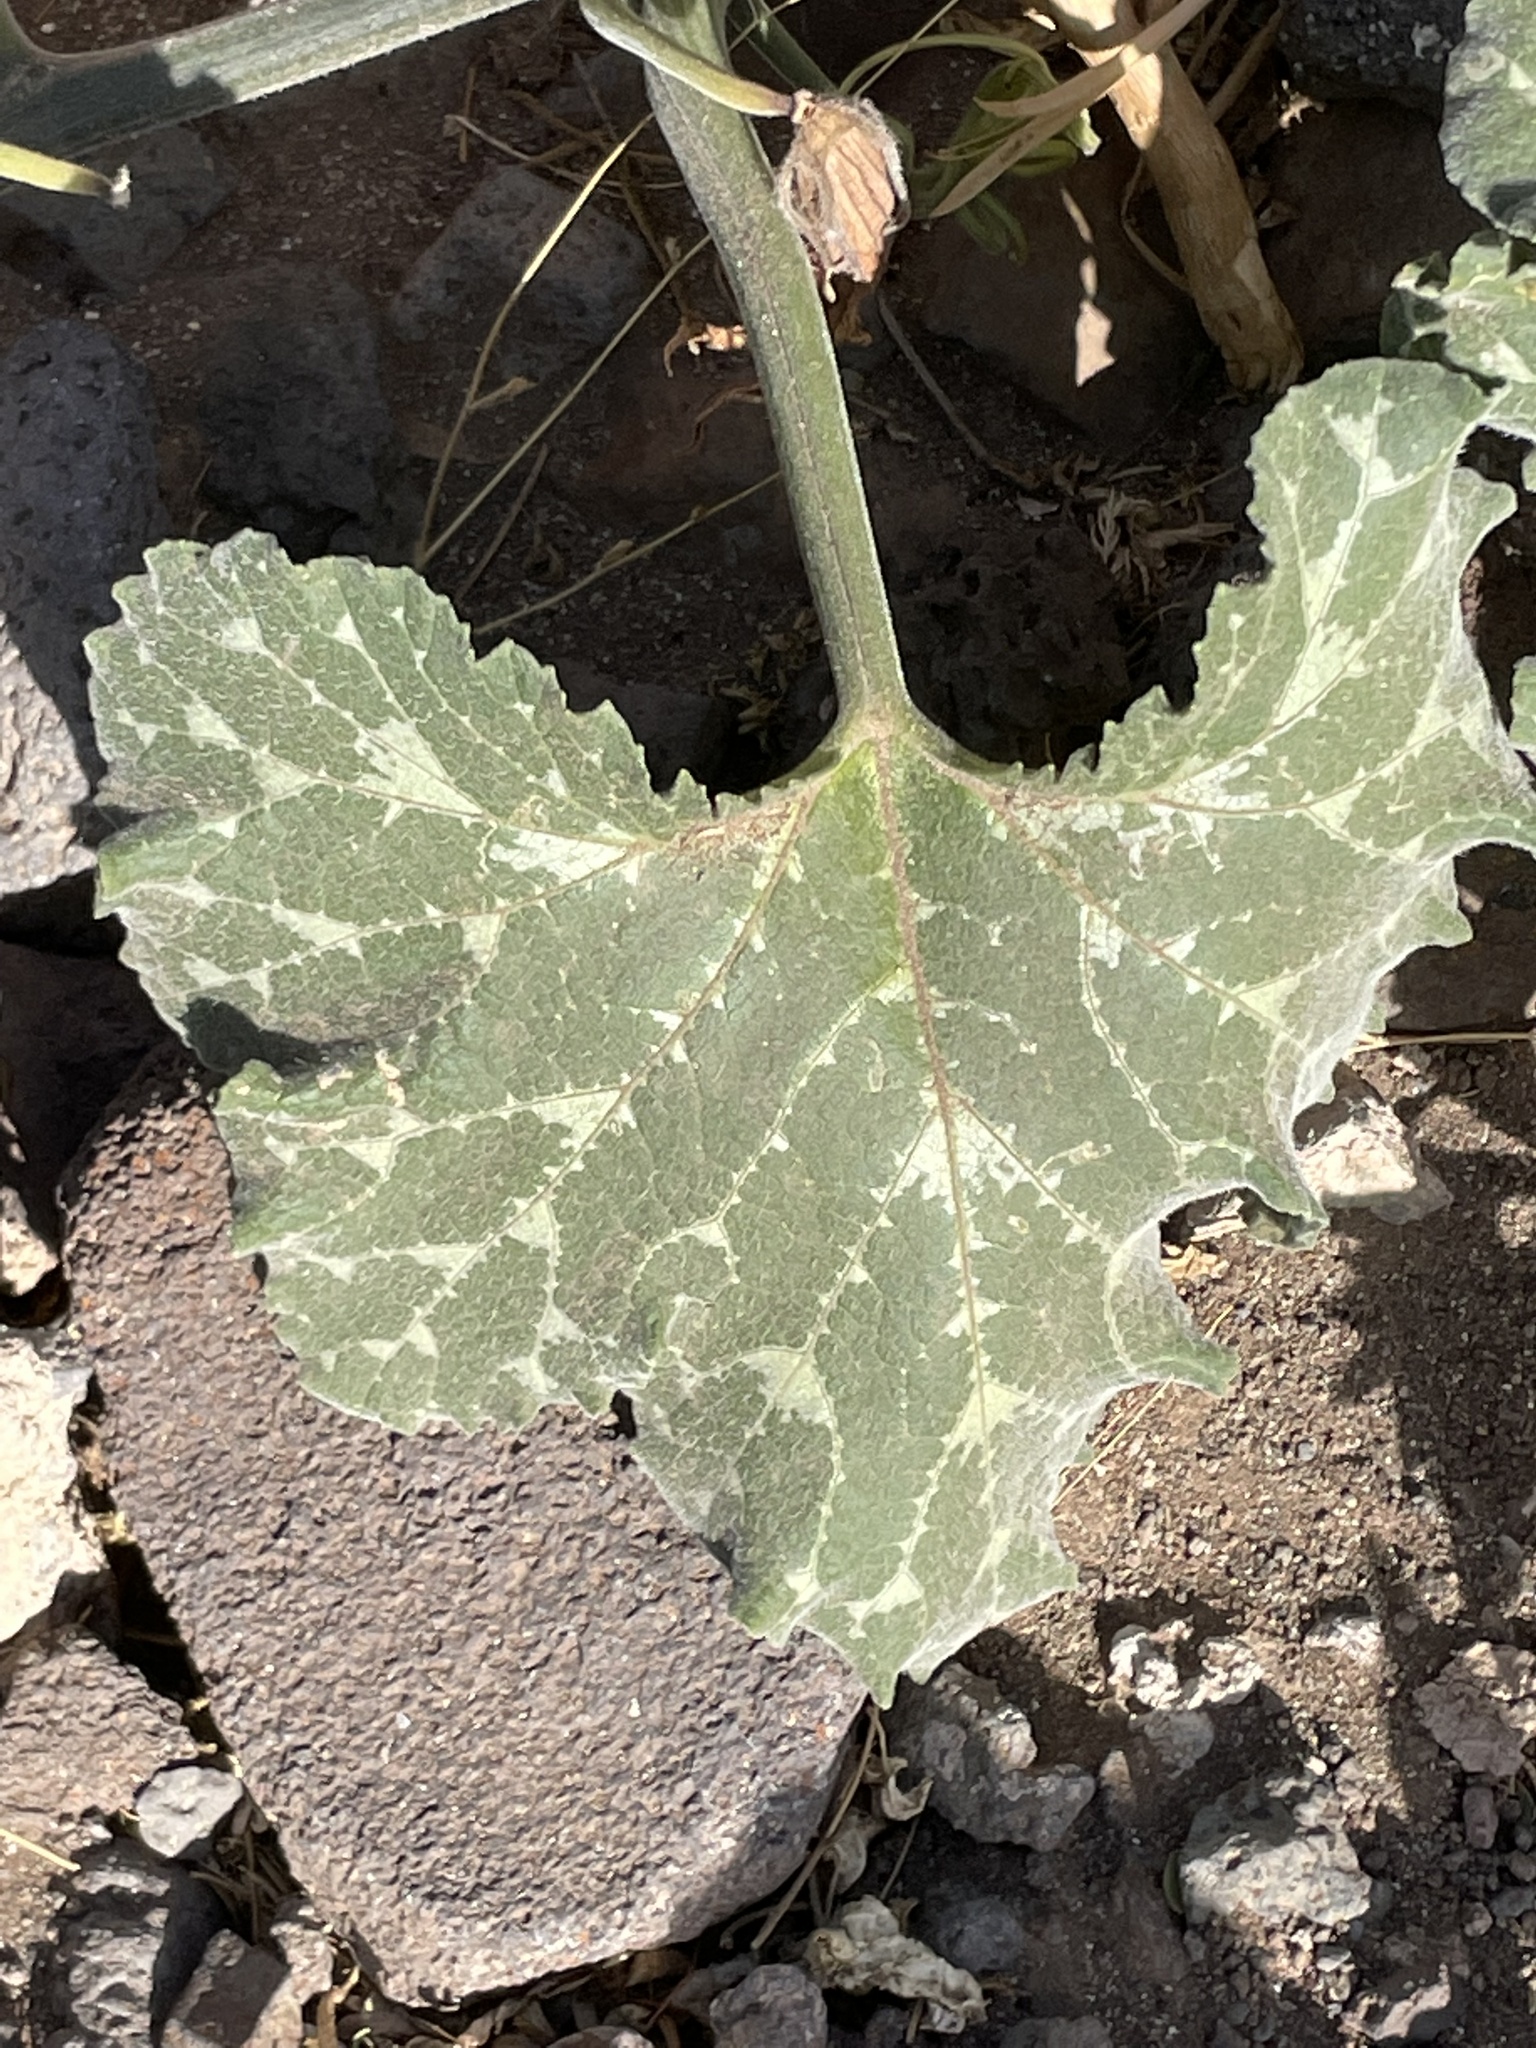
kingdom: Plantae
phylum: Tracheophyta
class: Magnoliopsida
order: Cucurbitales
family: Cucurbitaceae
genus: Cucurbita
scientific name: Cucurbita moschata
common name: Squash / pumpkin
